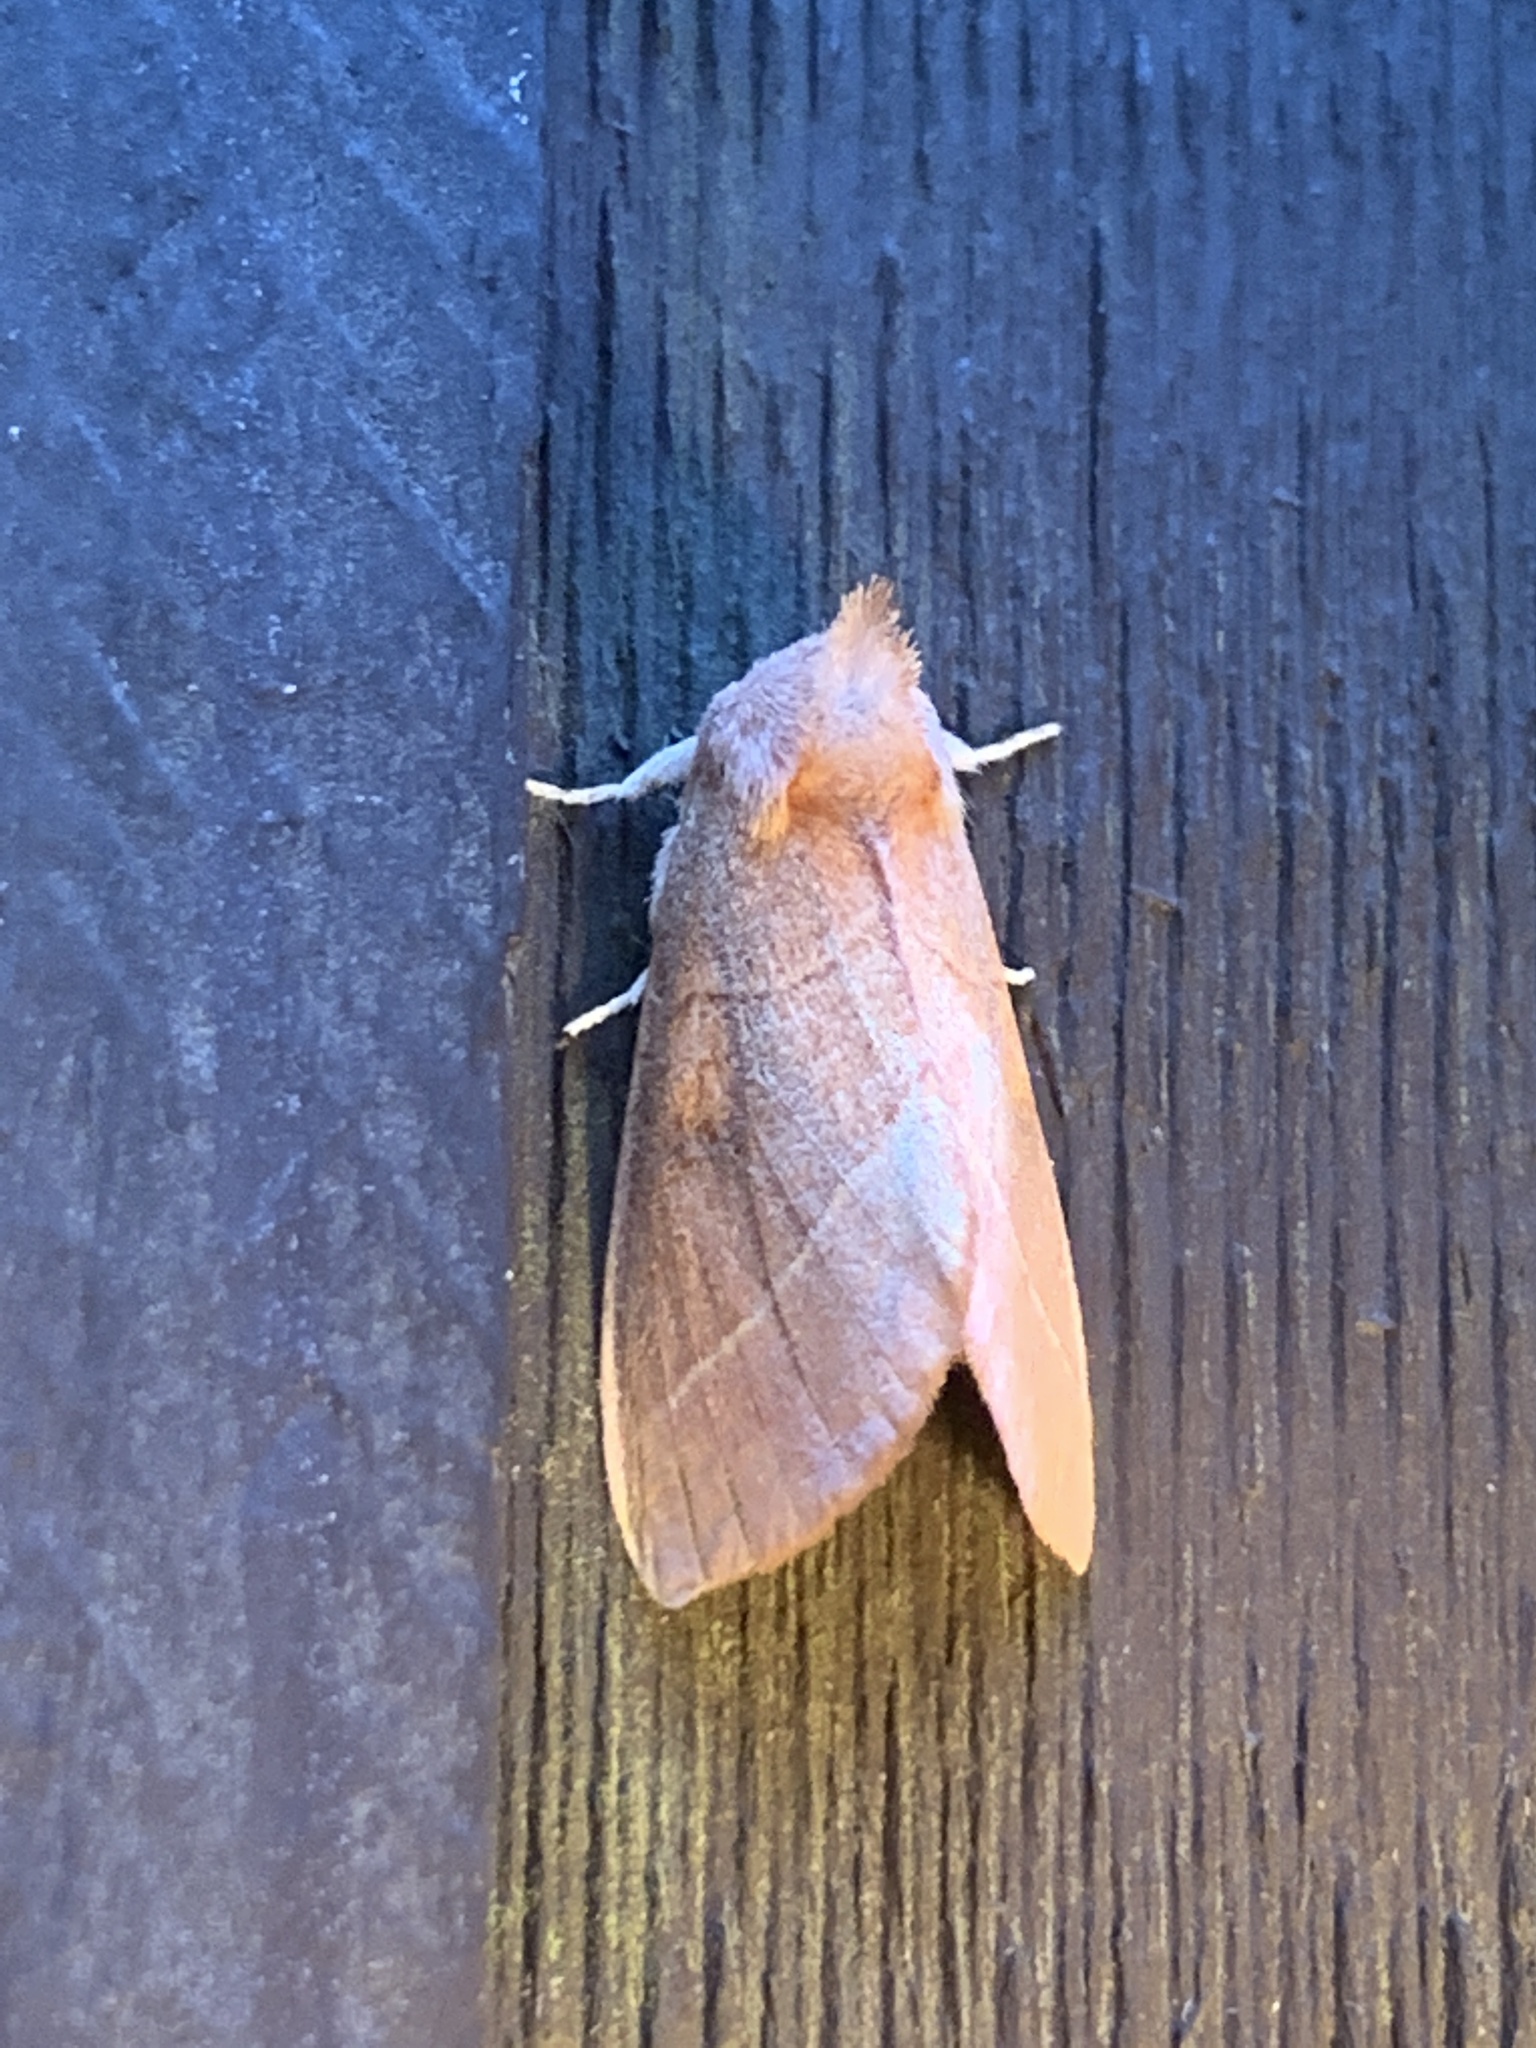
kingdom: Animalia
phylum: Arthropoda
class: Insecta
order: Lepidoptera
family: Notodontidae
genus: Nadata
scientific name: Nadata gibbosa
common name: White-dotted prominent
